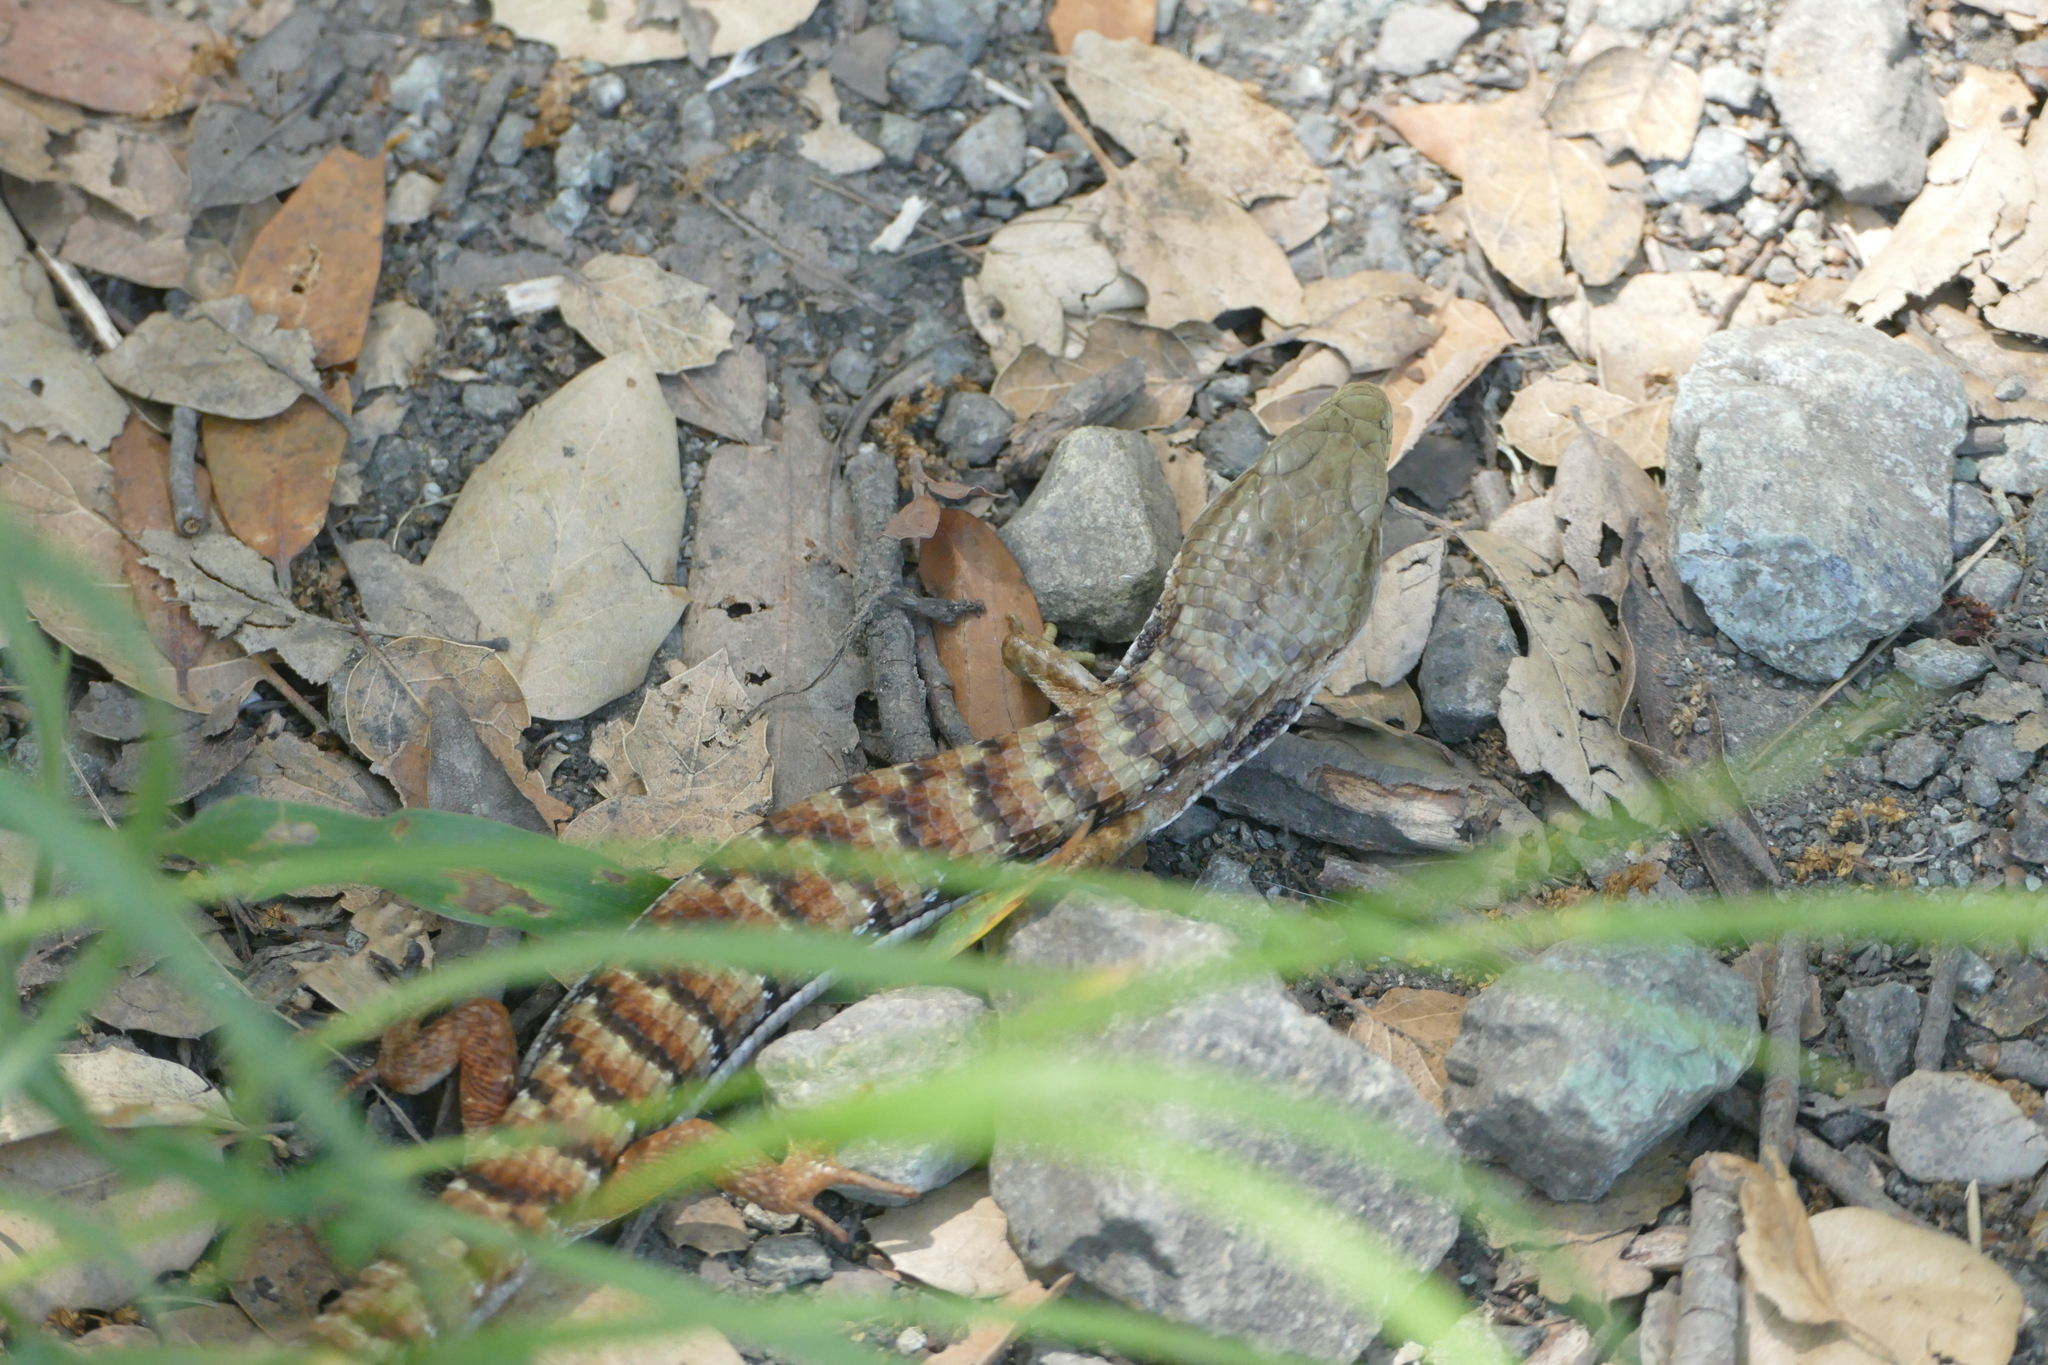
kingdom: Animalia
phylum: Chordata
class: Squamata
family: Anguidae
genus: Elgaria
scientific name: Elgaria multicarinata
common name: Southern alligator lizard
